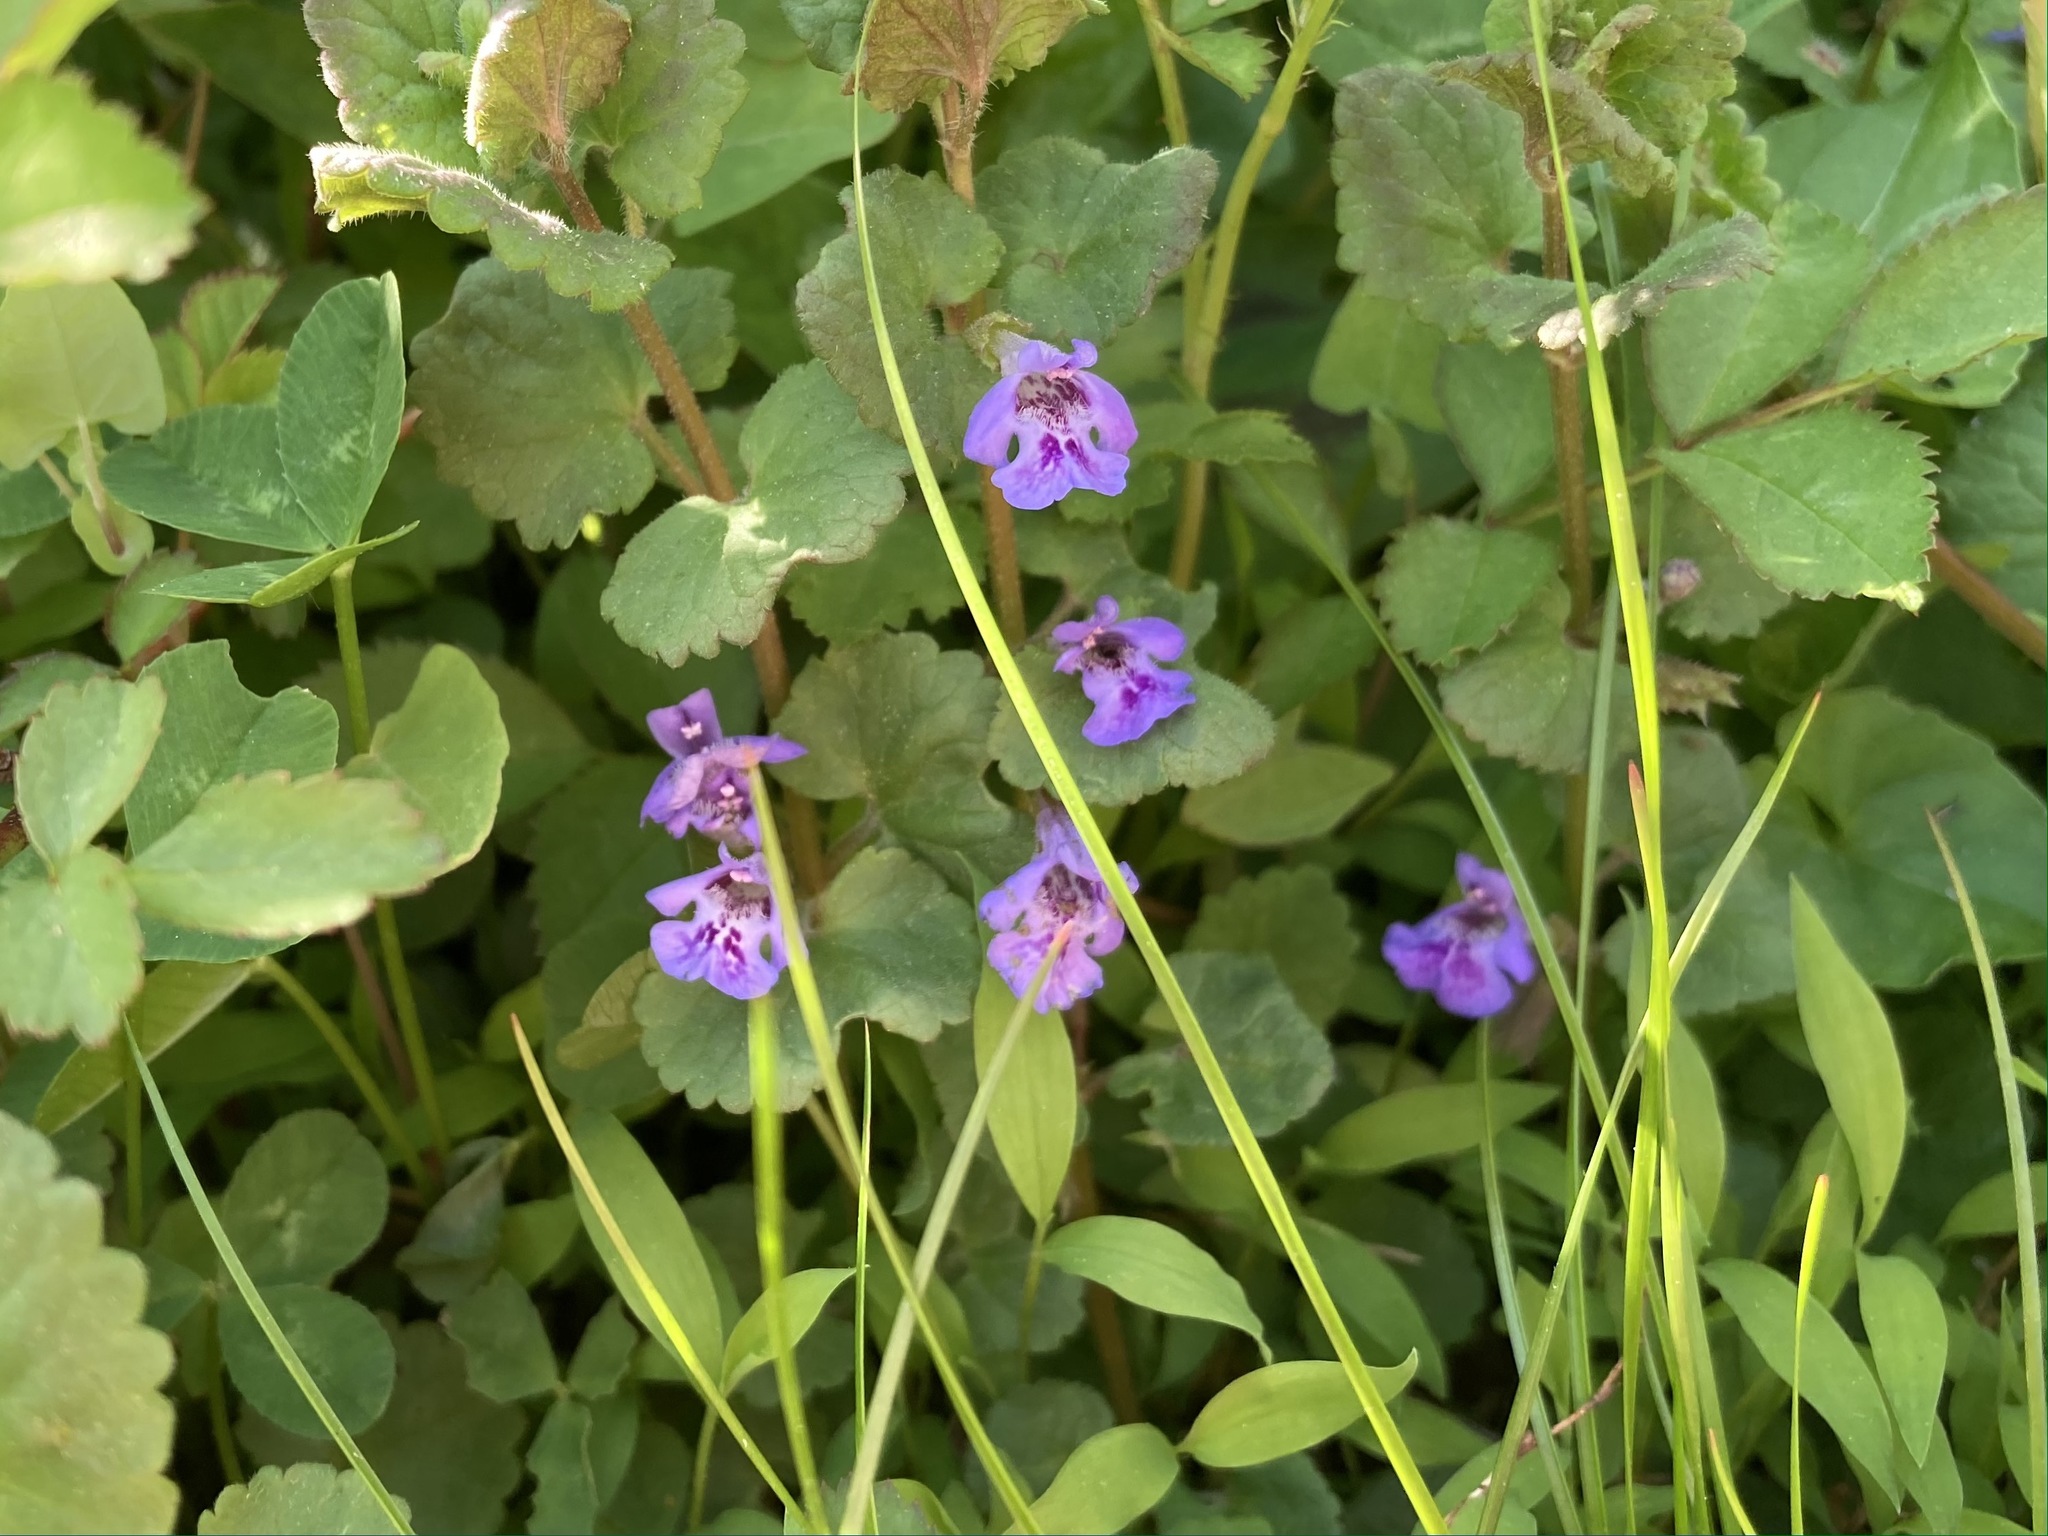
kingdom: Plantae
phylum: Tracheophyta
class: Magnoliopsida
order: Lamiales
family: Lamiaceae
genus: Glechoma
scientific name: Glechoma hederacea
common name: Ground ivy
